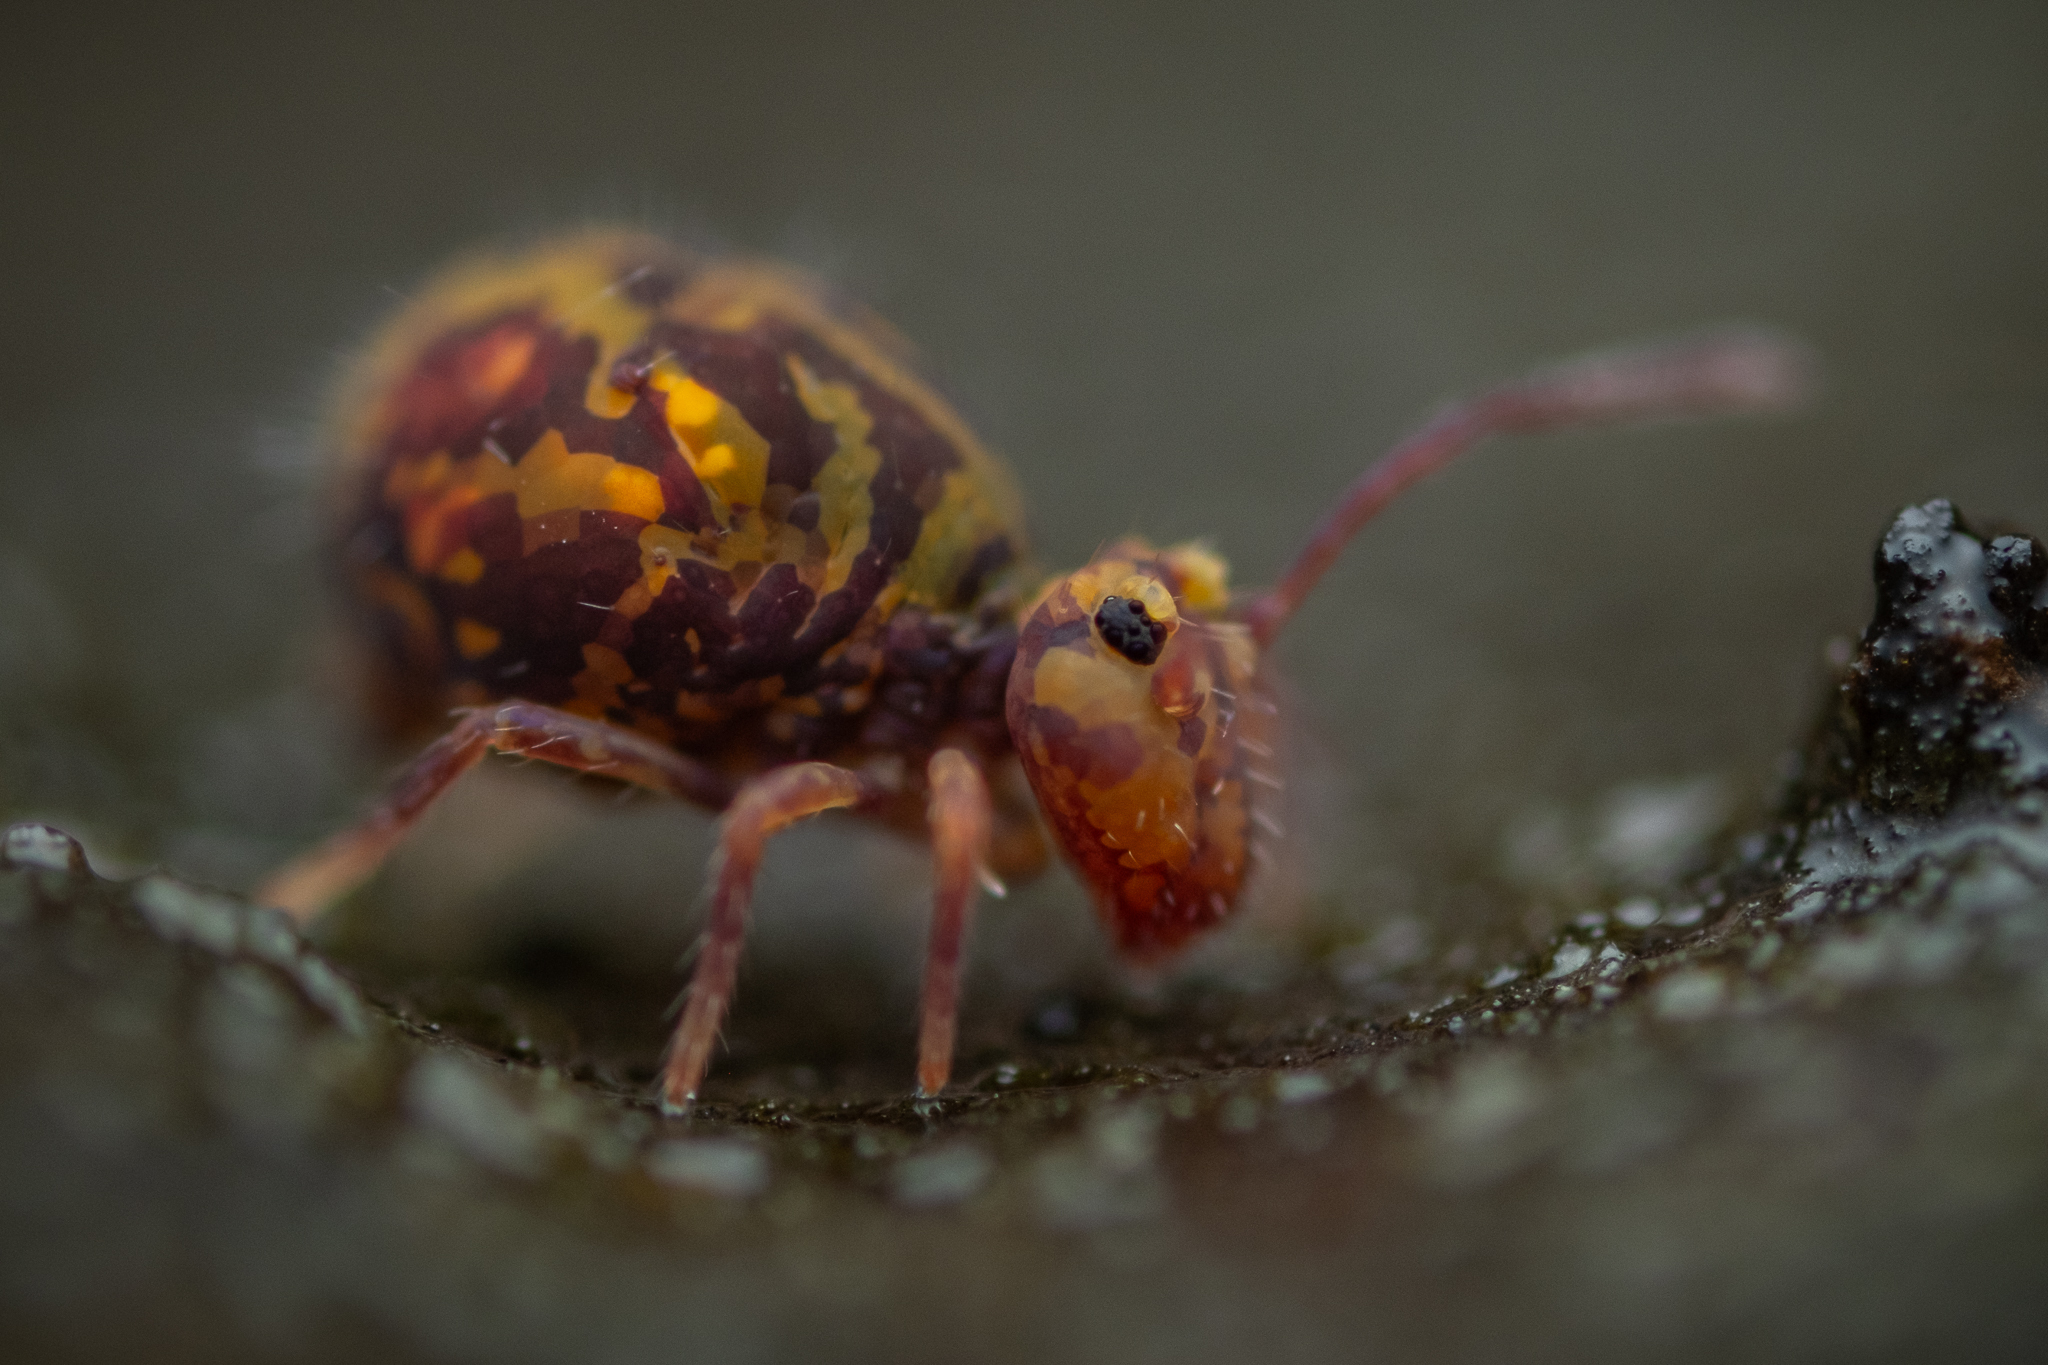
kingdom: Animalia
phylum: Arthropoda
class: Collembola
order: Symphypleona
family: Dicyrtomidae
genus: Dicyrtomina
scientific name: Dicyrtomina ornata
